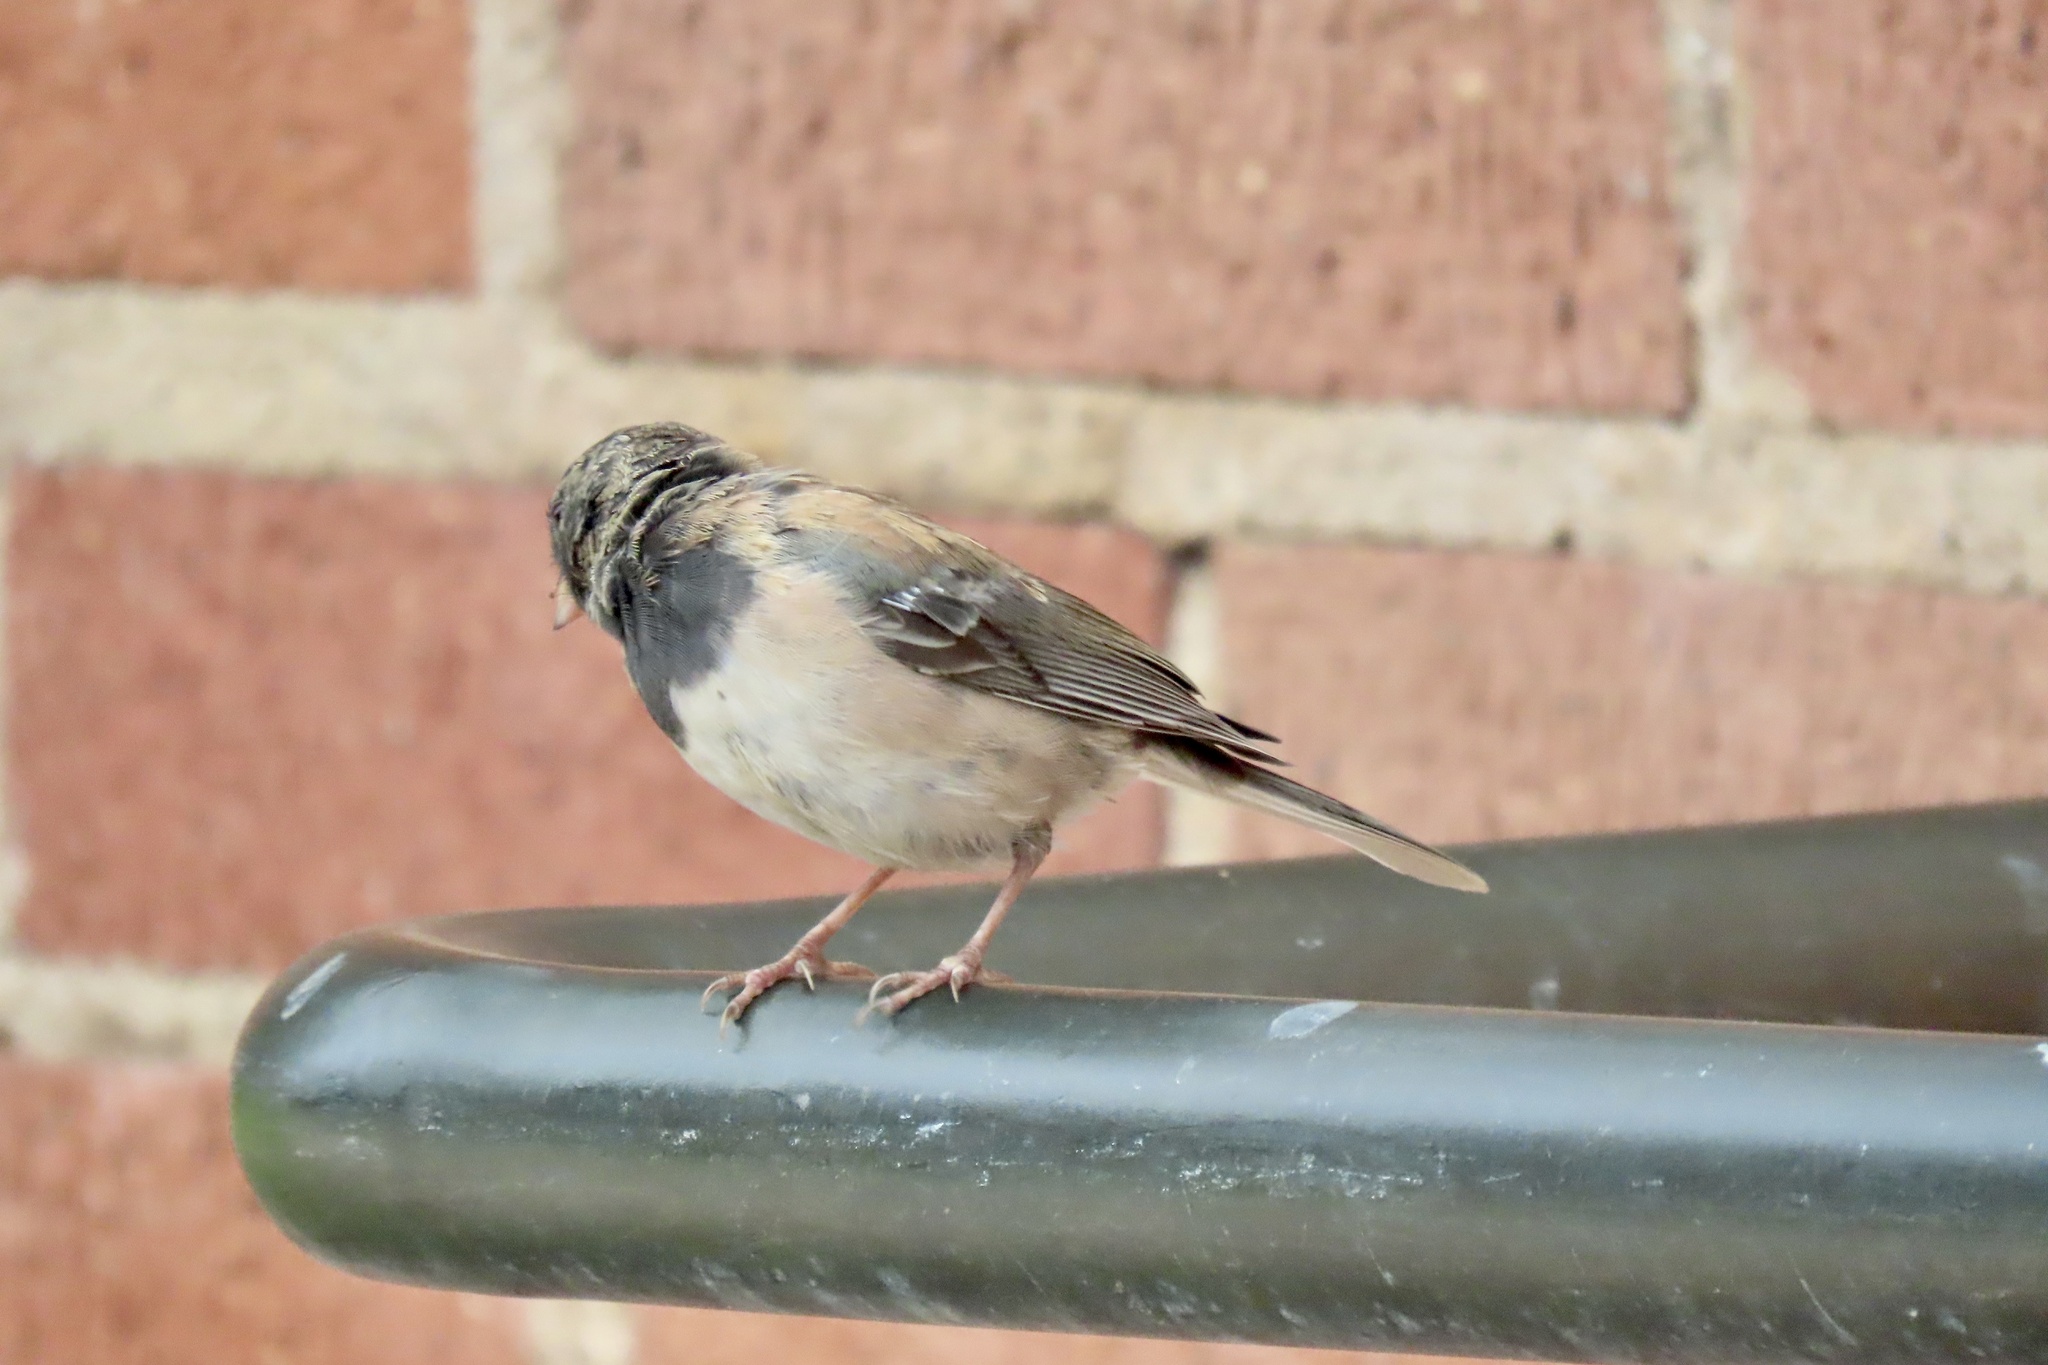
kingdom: Animalia
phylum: Chordata
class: Aves
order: Passeriformes
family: Passerellidae
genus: Junco
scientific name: Junco hyemalis
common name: Dark-eyed junco
